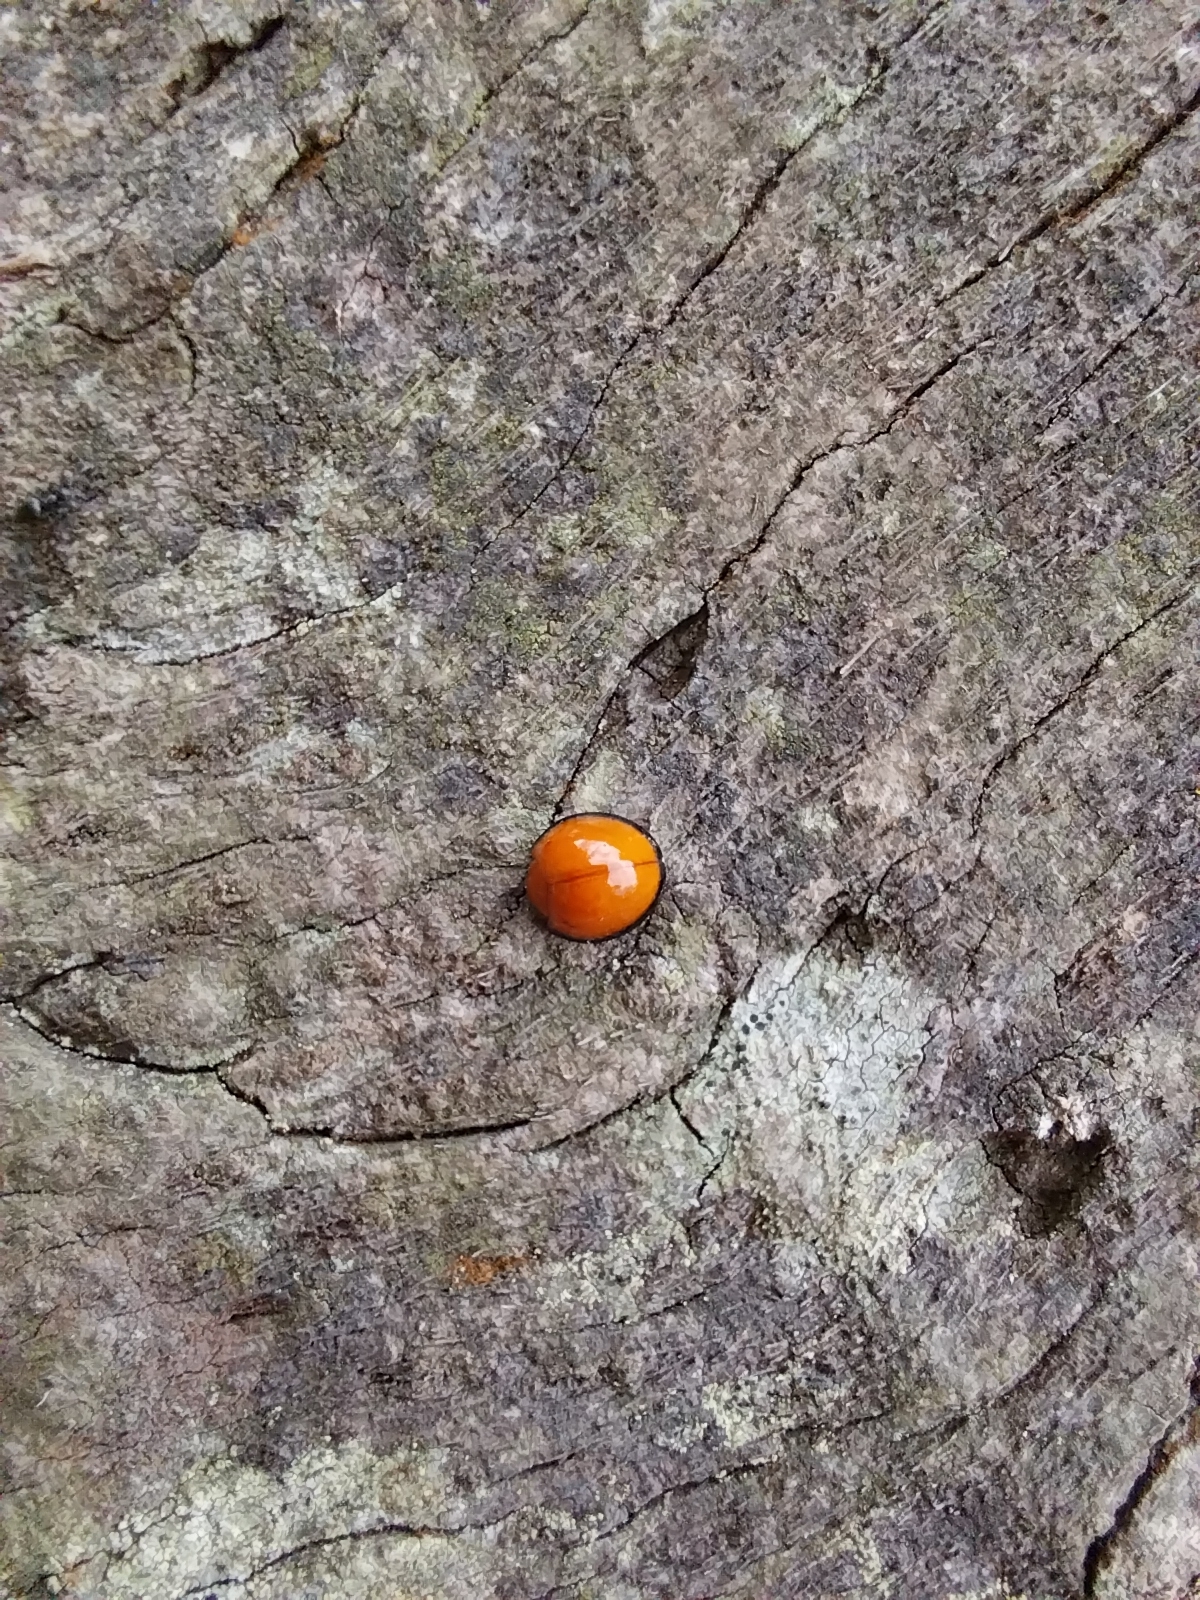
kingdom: Animalia
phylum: Arthropoda
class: Insecta
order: Coleoptera
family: Coccinellidae
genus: Chilocorus
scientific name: Chilocorus circumdatus
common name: Lady beetle
